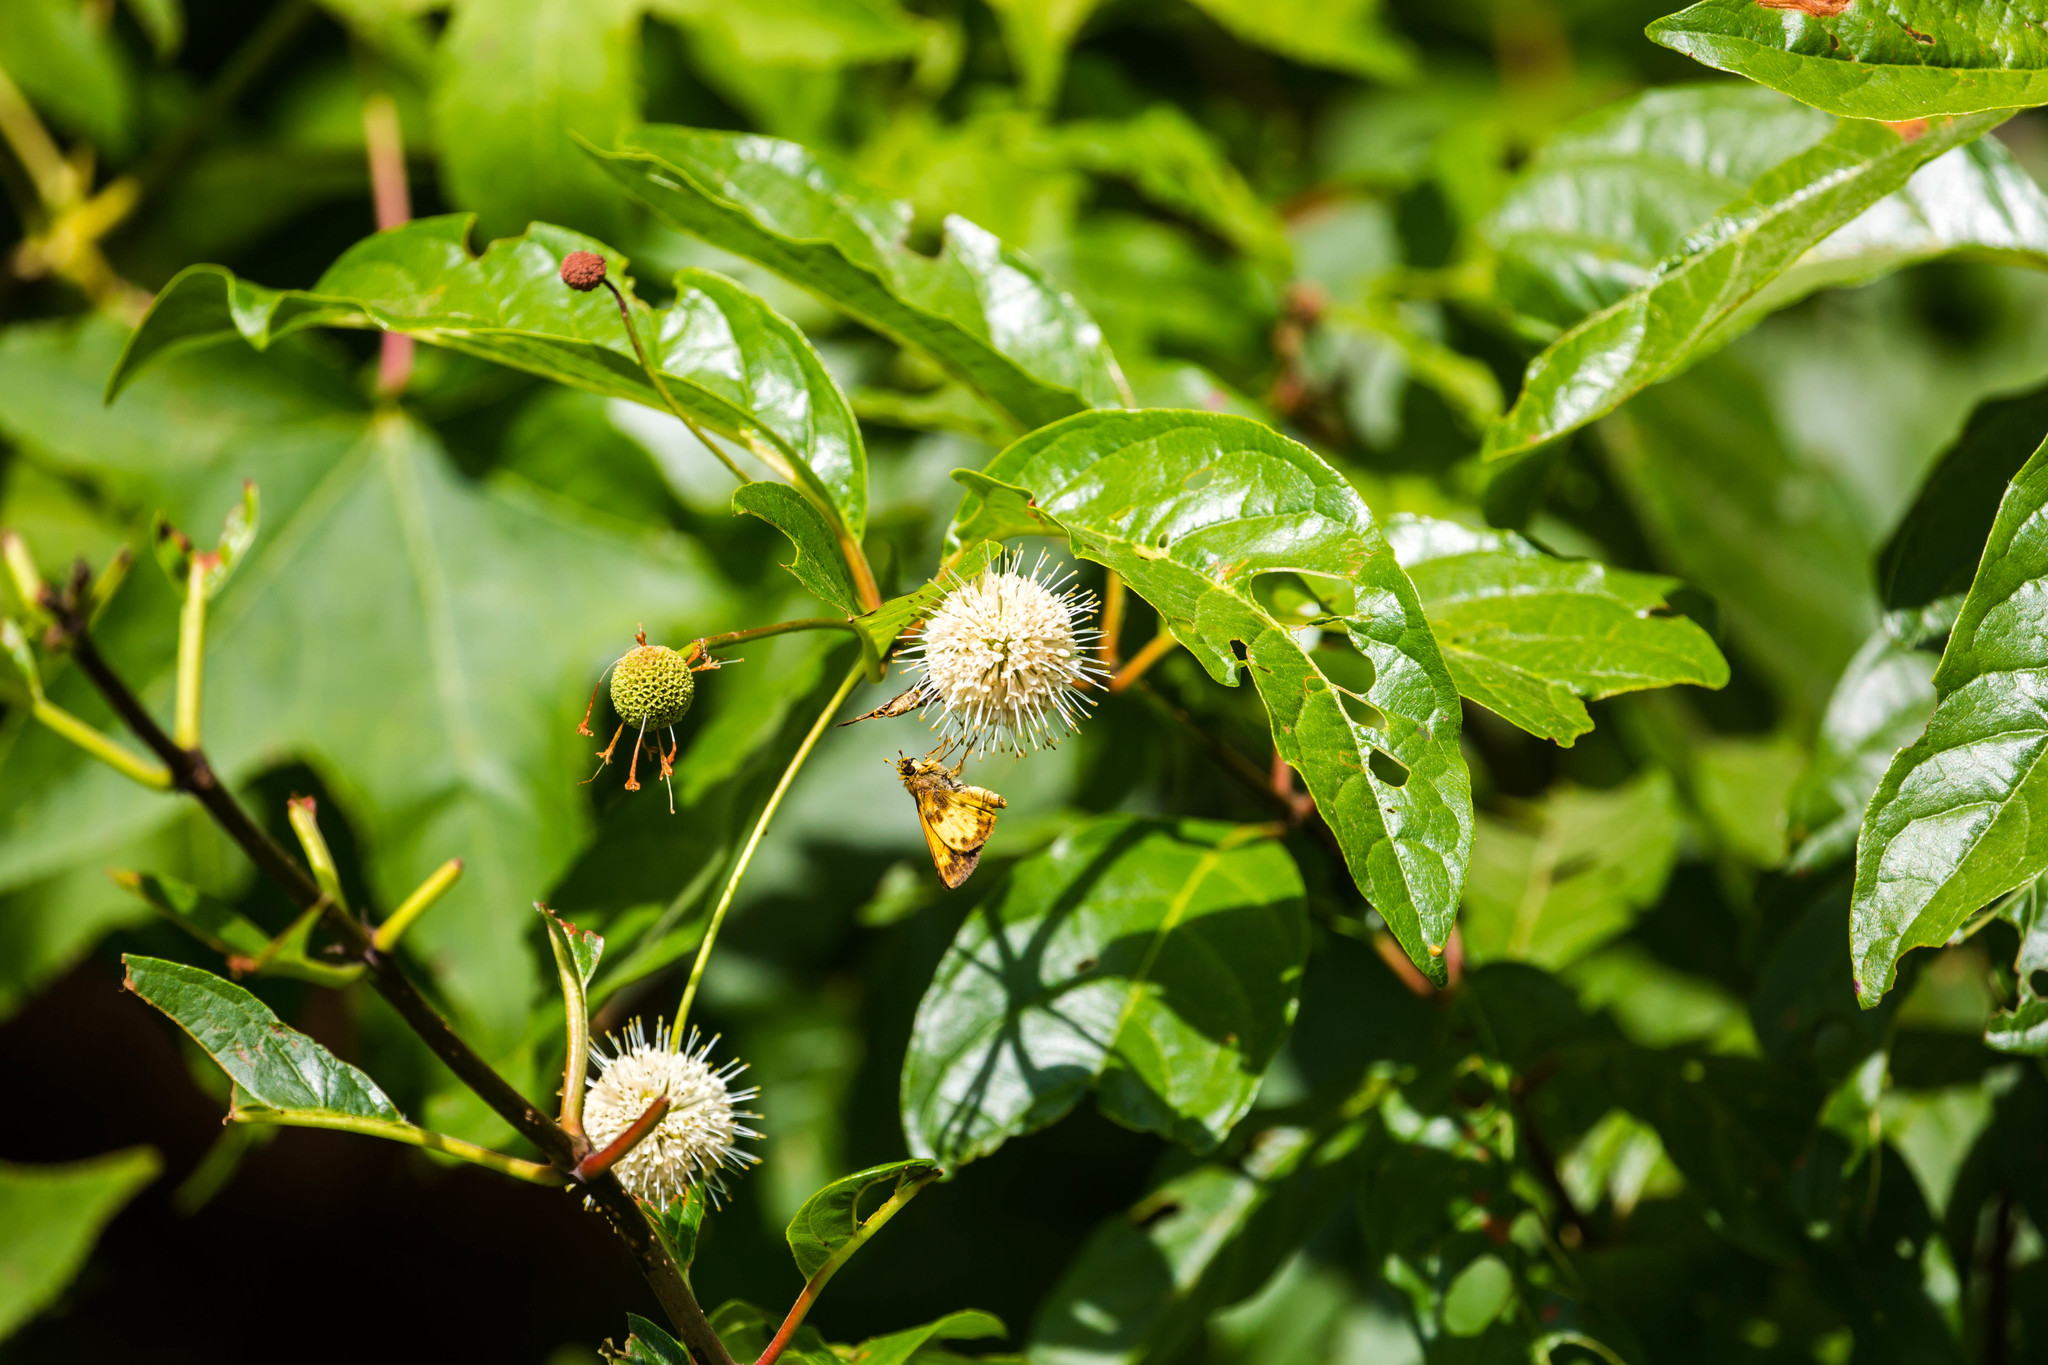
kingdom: Animalia
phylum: Arthropoda
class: Insecta
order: Lepidoptera
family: Hesperiidae
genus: Lon
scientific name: Lon zabulon
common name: Zabulon skipper
